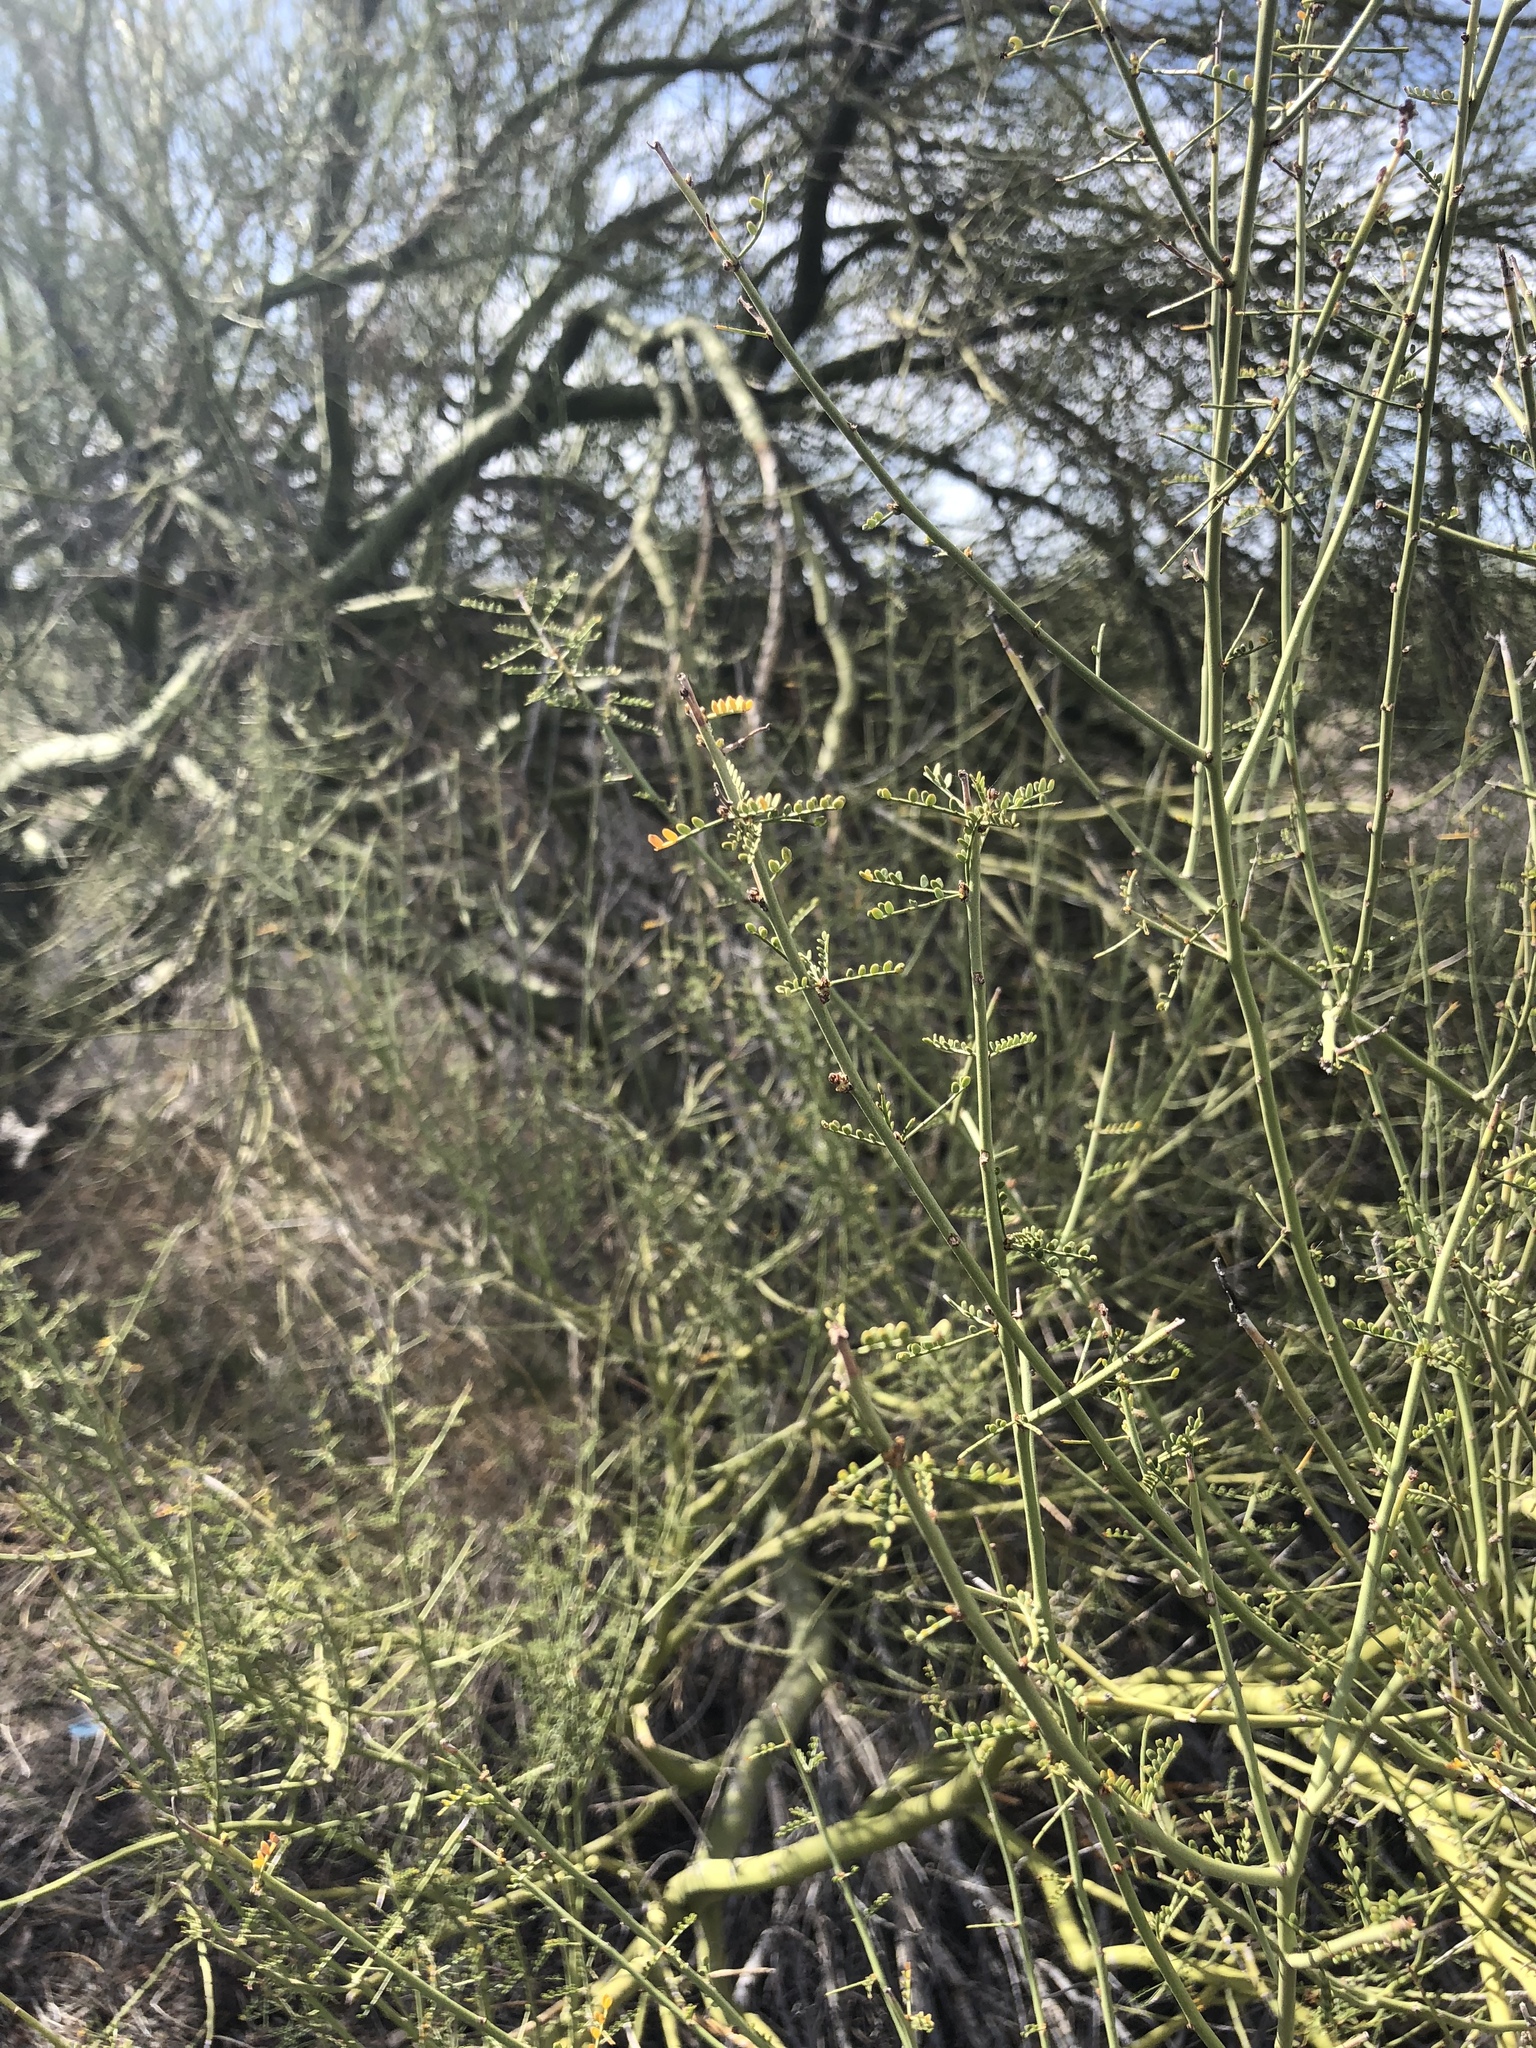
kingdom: Plantae
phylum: Tracheophyta
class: Magnoliopsida
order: Fabales
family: Fabaceae
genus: Parkinsonia
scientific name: Parkinsonia microphylla
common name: Yellow paloverde
